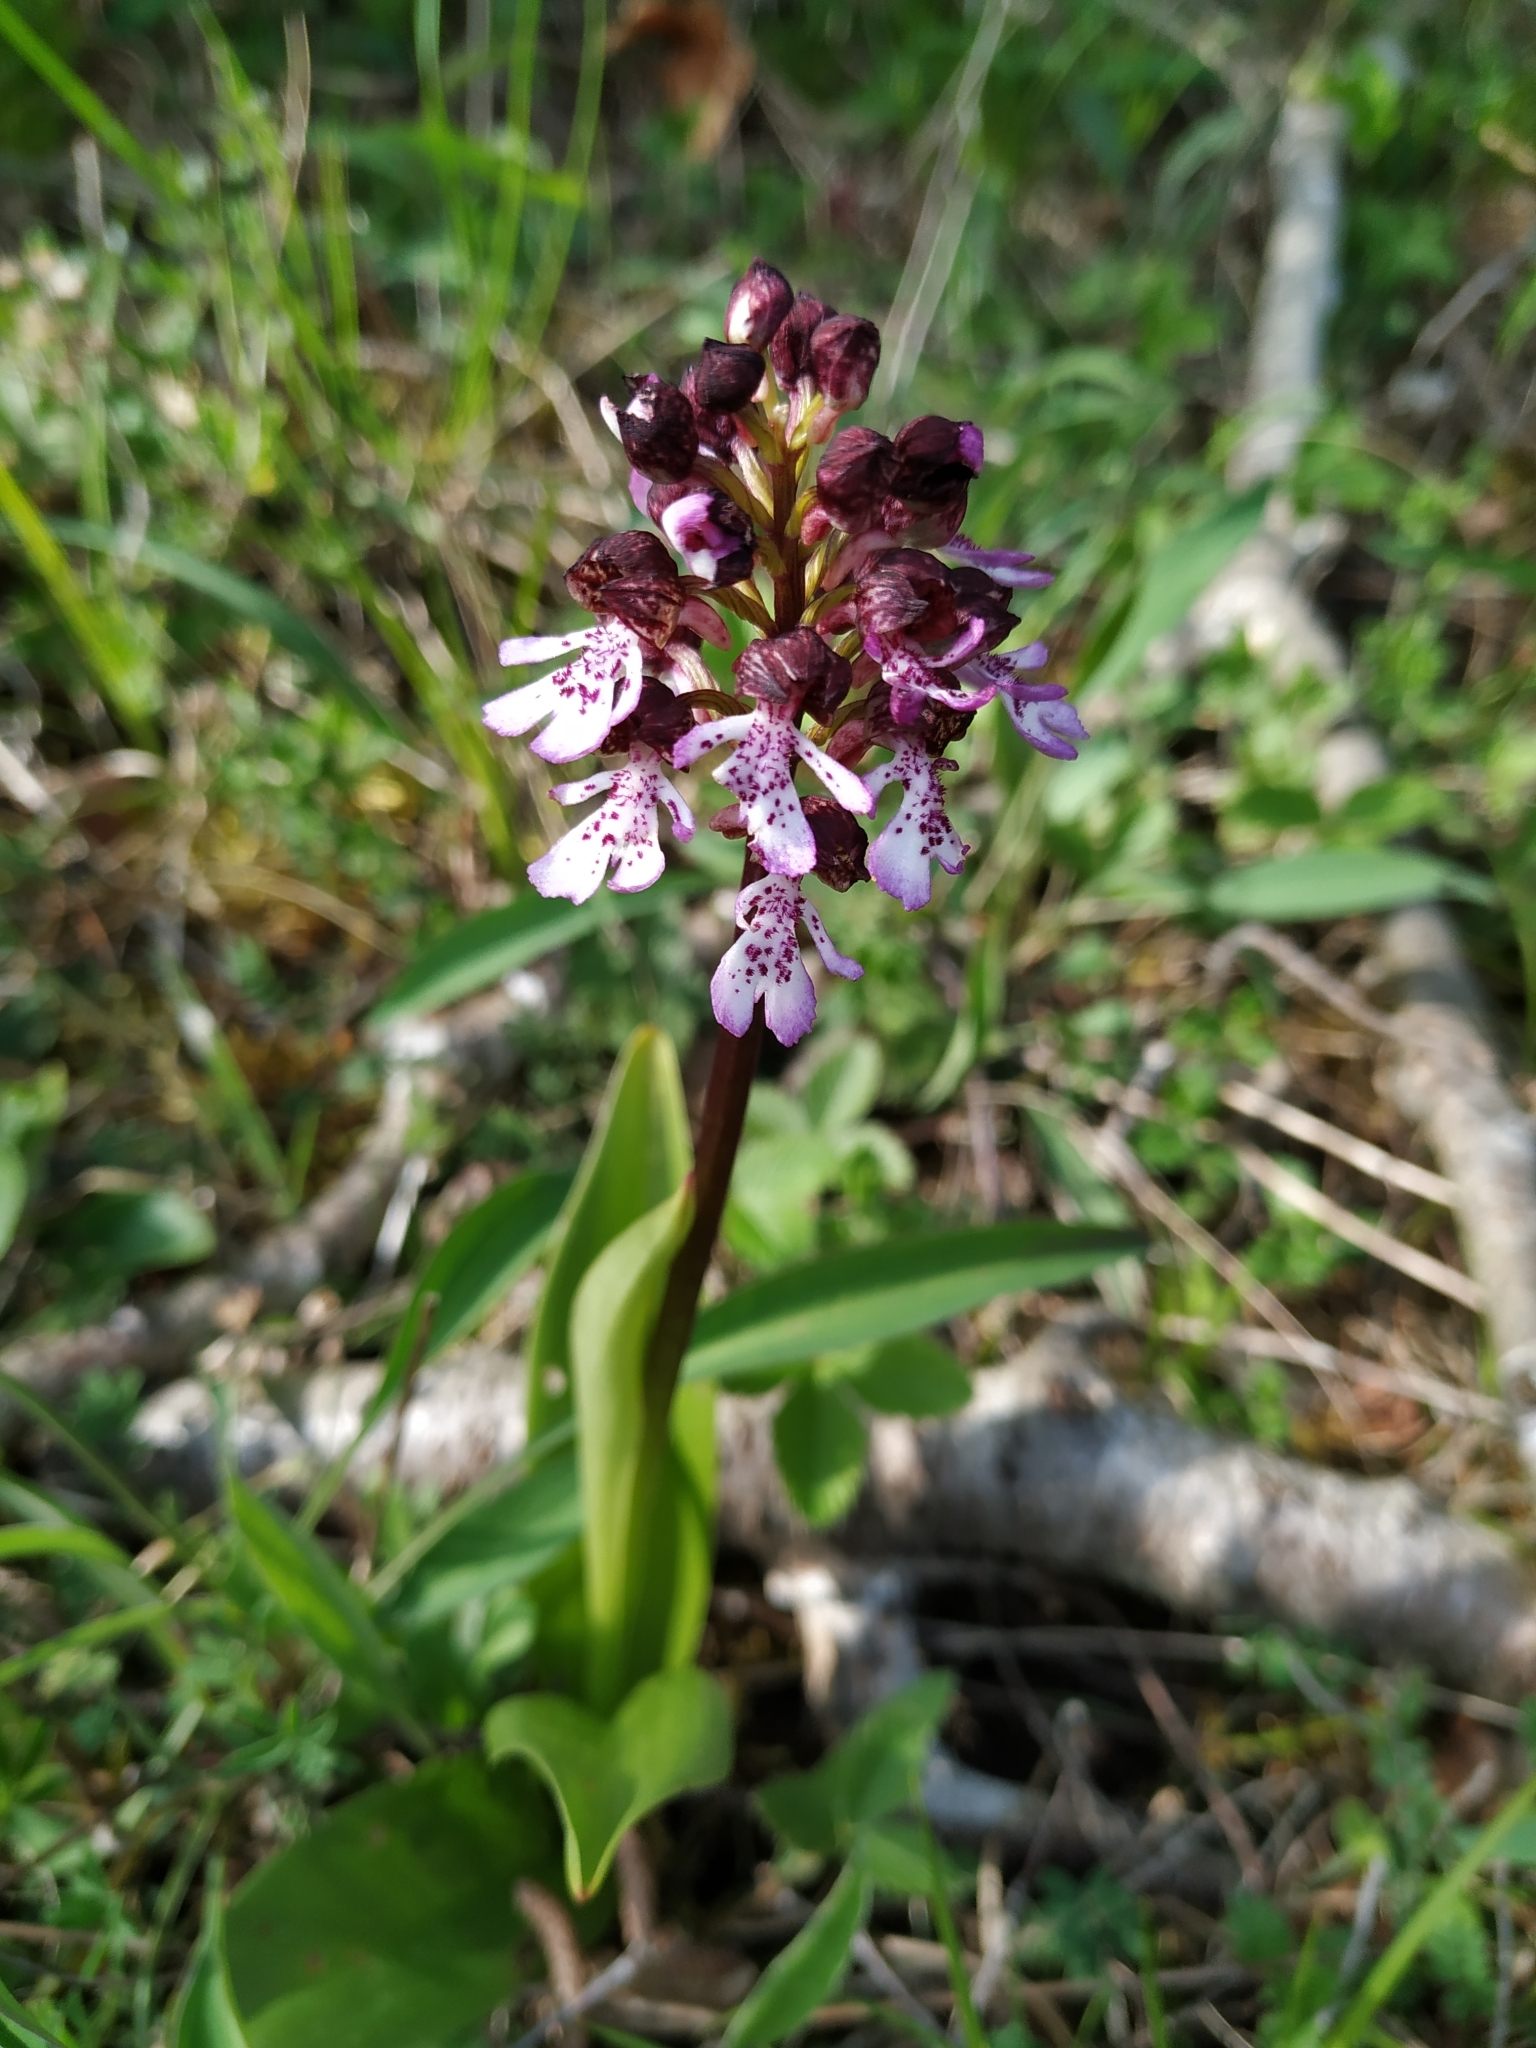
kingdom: Plantae
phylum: Tracheophyta
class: Liliopsida
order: Asparagales
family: Orchidaceae
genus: Orchis
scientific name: Orchis purpurea
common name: Lady orchid
